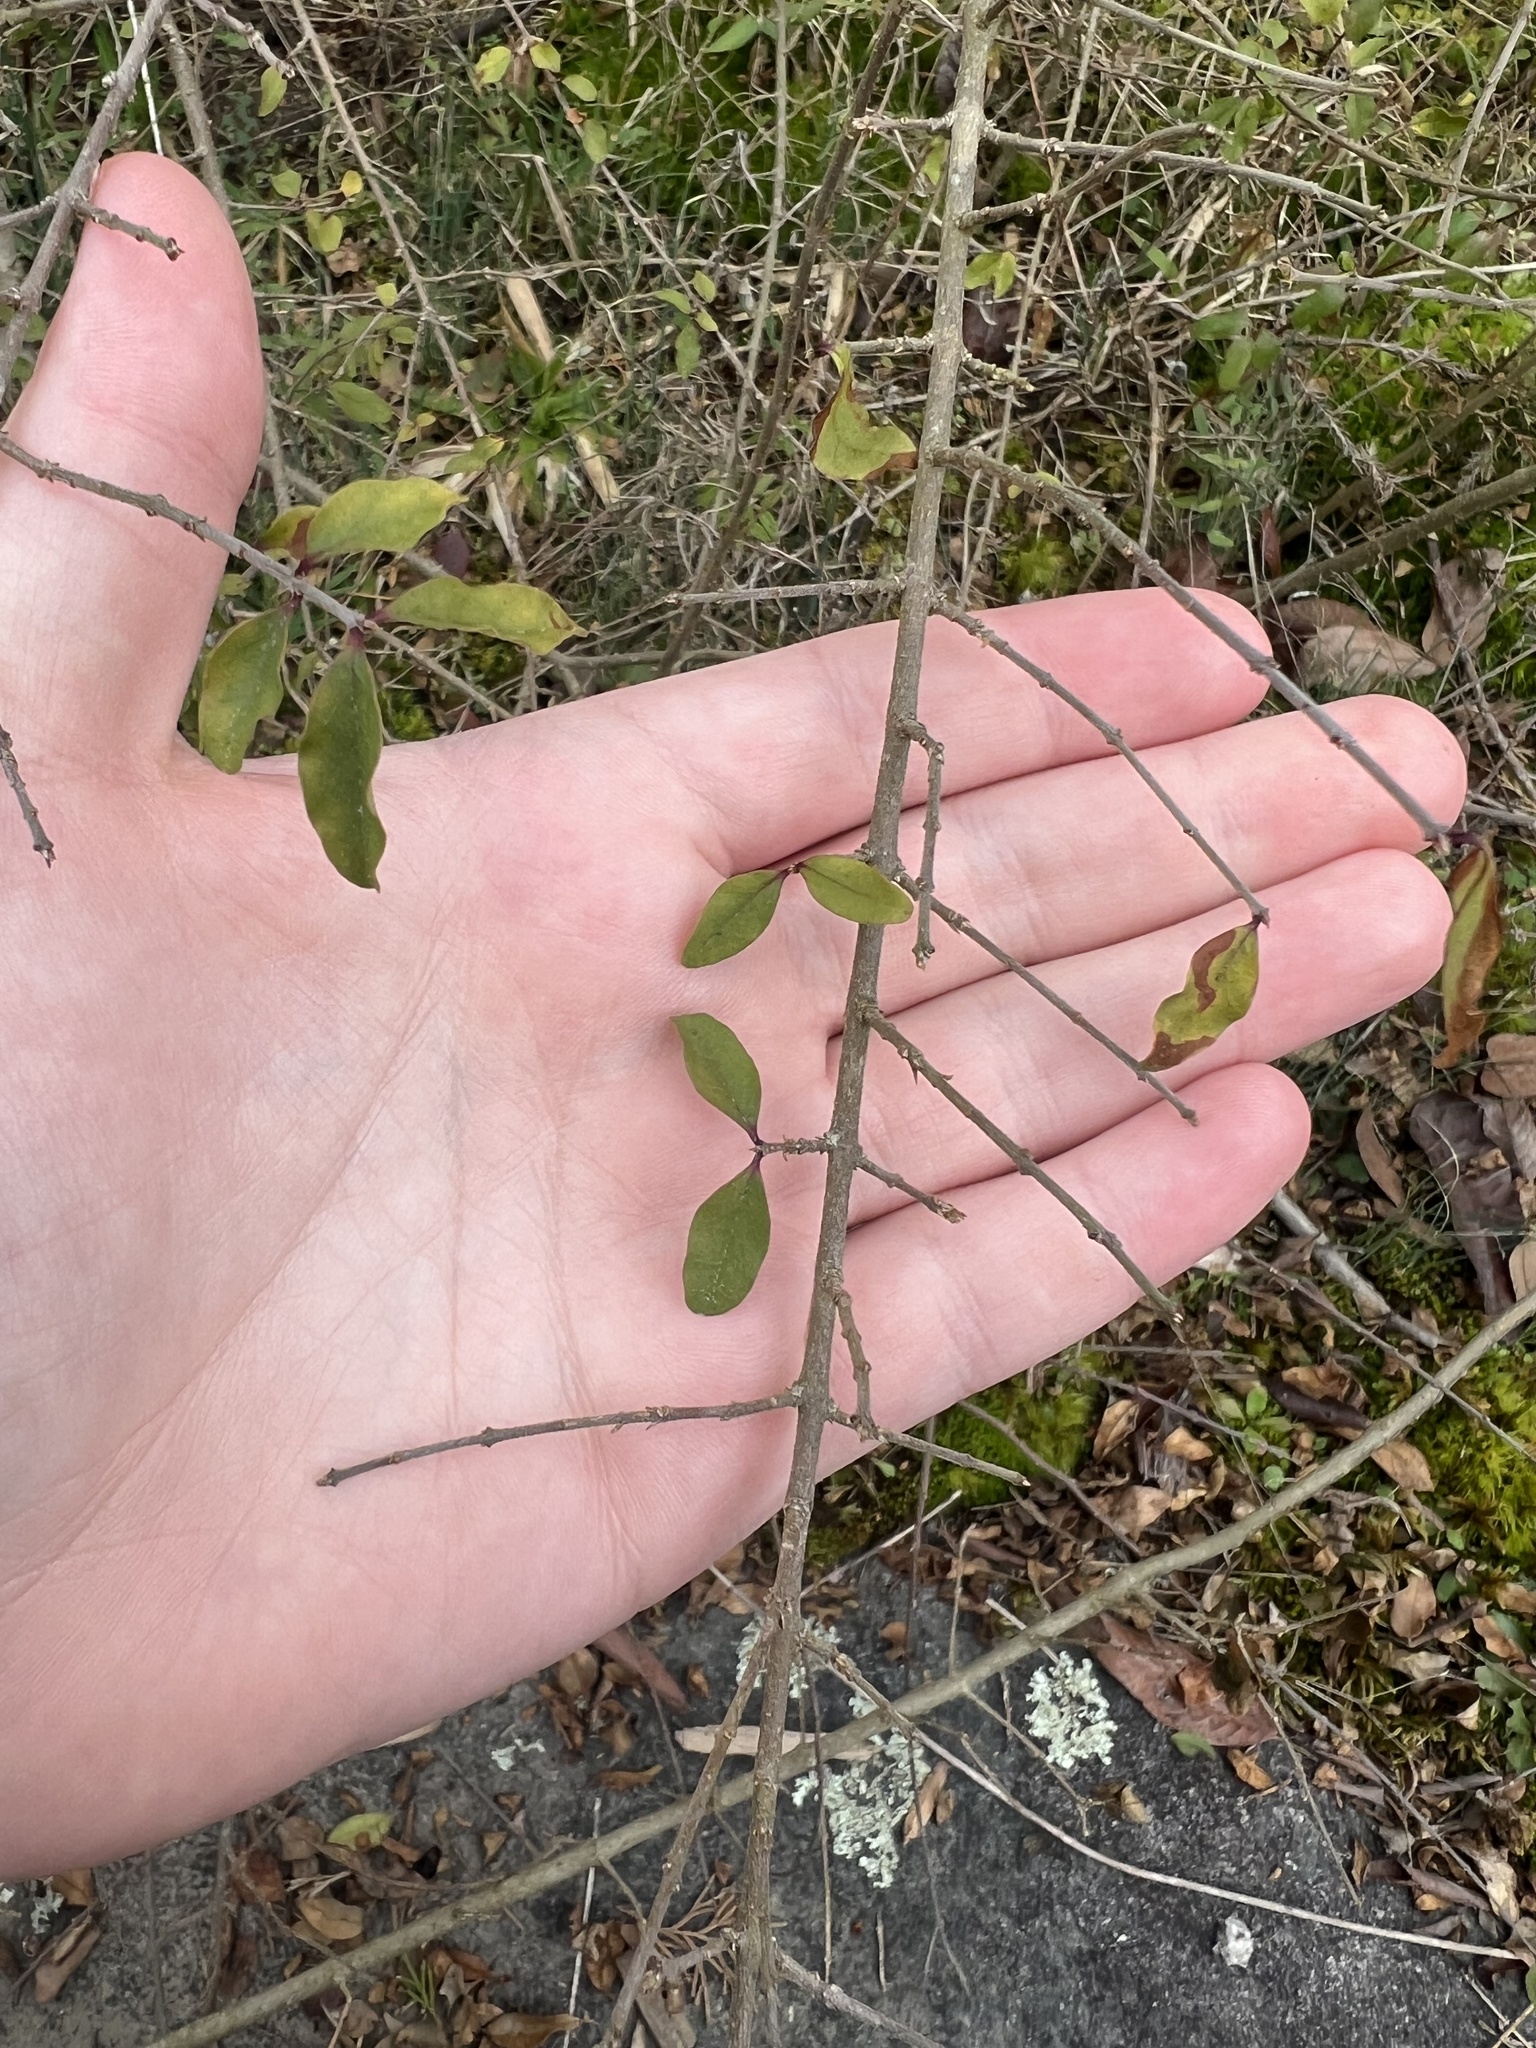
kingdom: Plantae
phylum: Tracheophyta
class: Magnoliopsida
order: Lamiales
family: Oleaceae
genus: Ligustrum
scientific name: Ligustrum sinense
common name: Chinese privet
